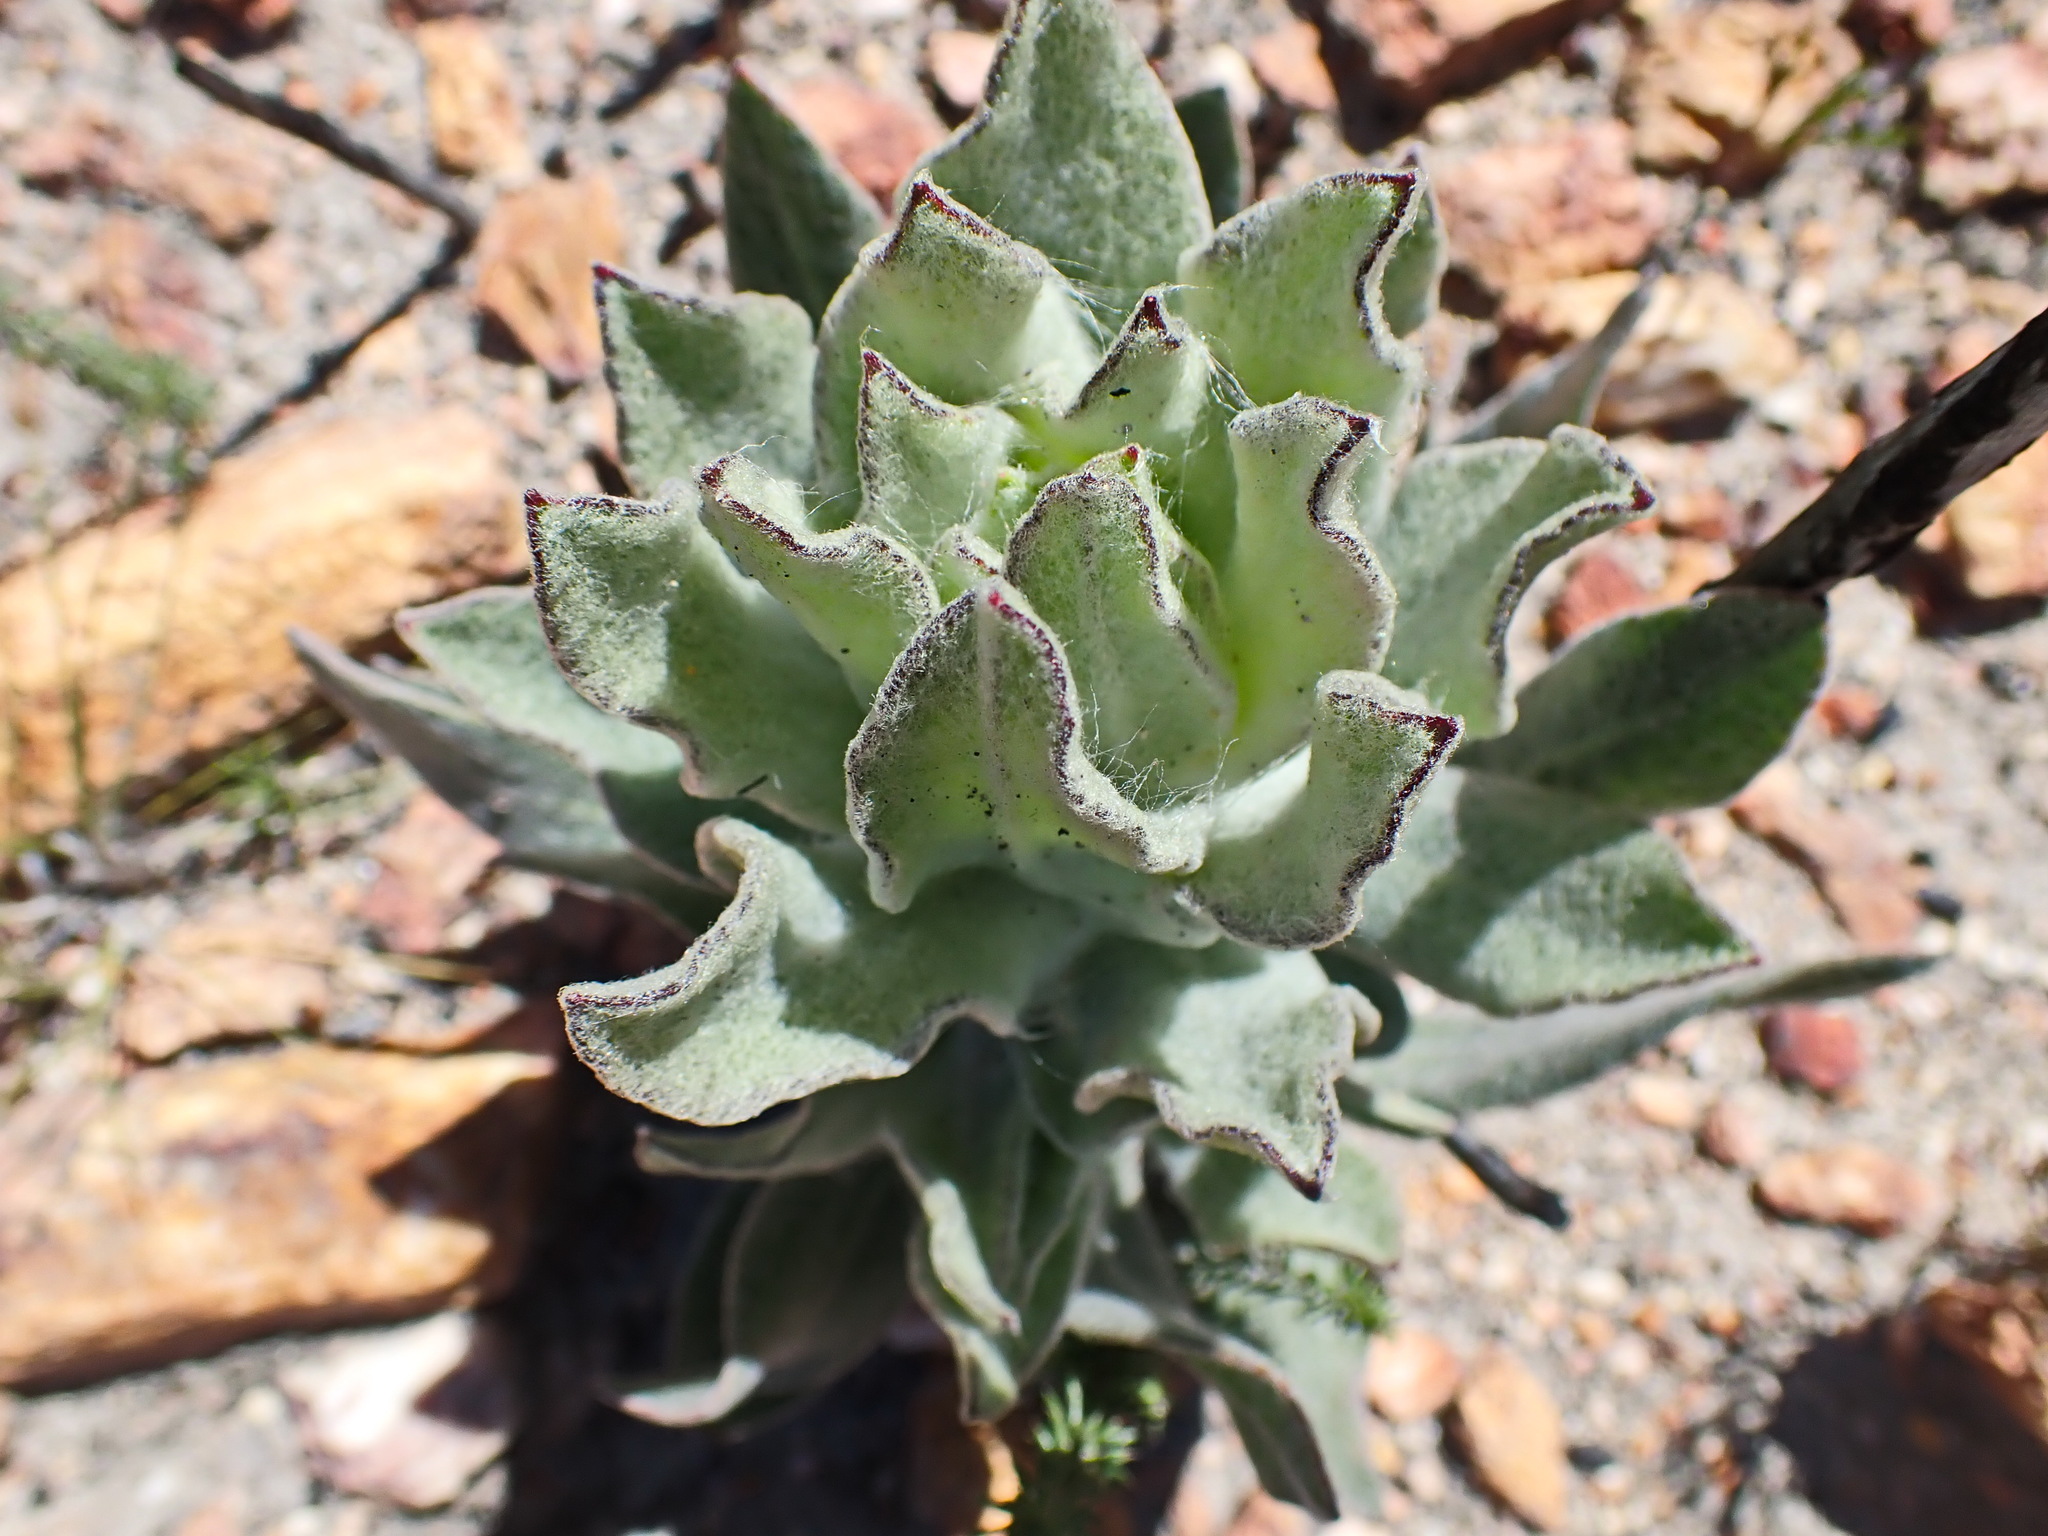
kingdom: Plantae
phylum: Tracheophyta
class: Magnoliopsida
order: Asterales
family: Asteraceae
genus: Syncarpha
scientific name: Syncarpha milleflora
